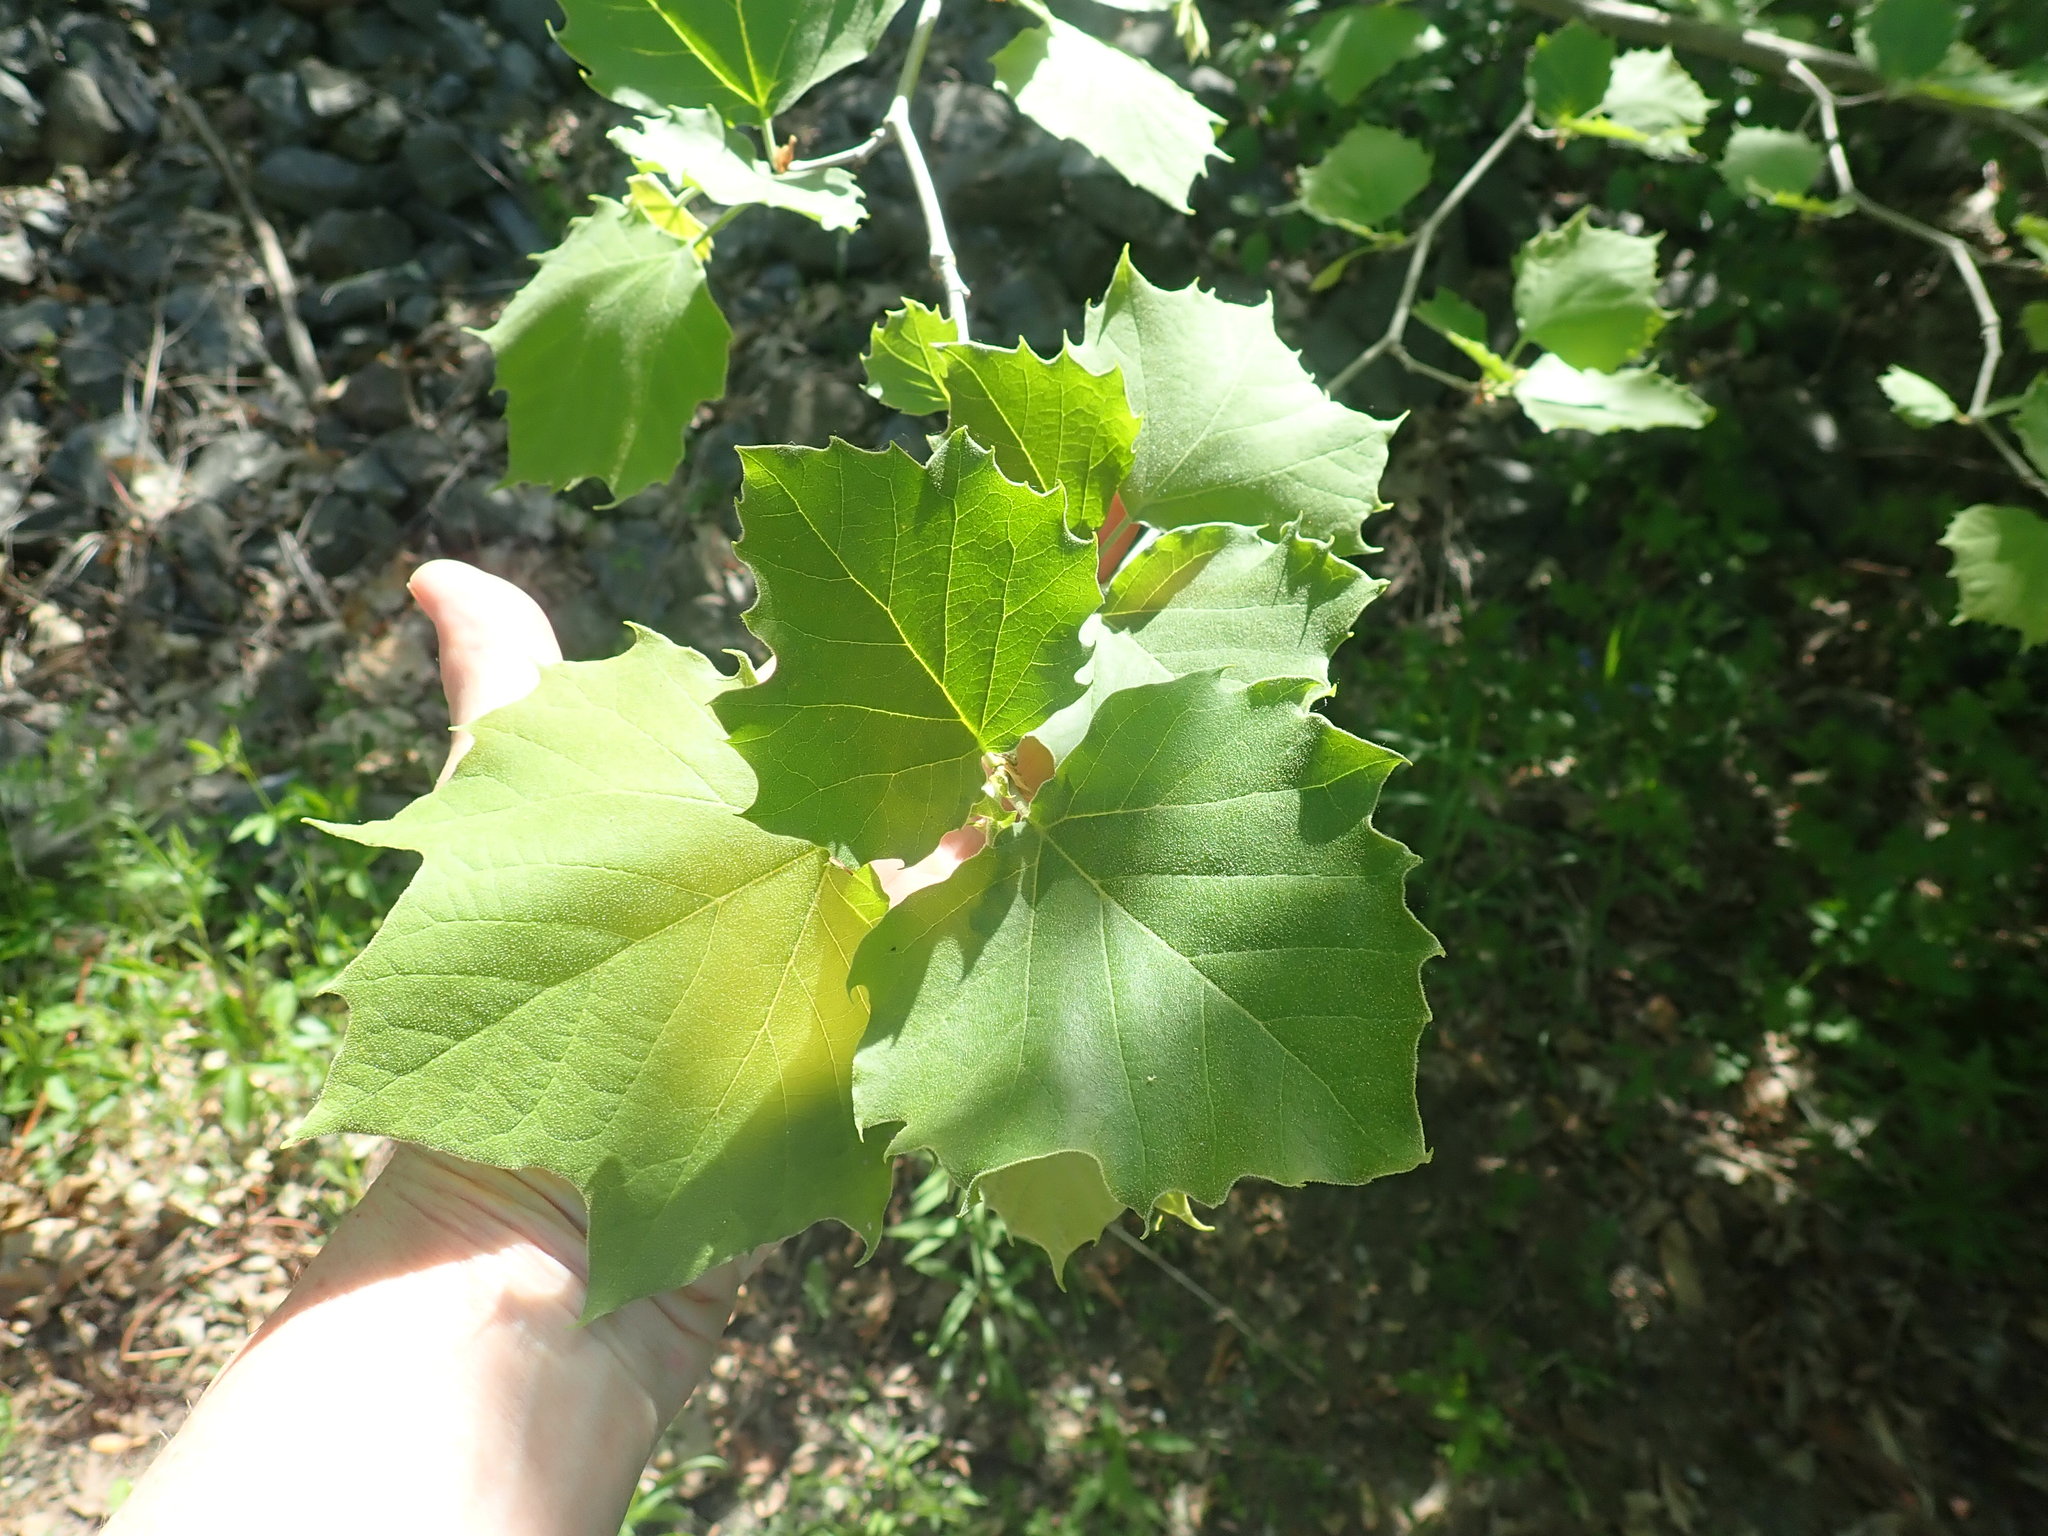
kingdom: Plantae
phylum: Tracheophyta
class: Magnoliopsida
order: Proteales
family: Platanaceae
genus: Platanus
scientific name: Platanus occidentalis
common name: American sycamore
